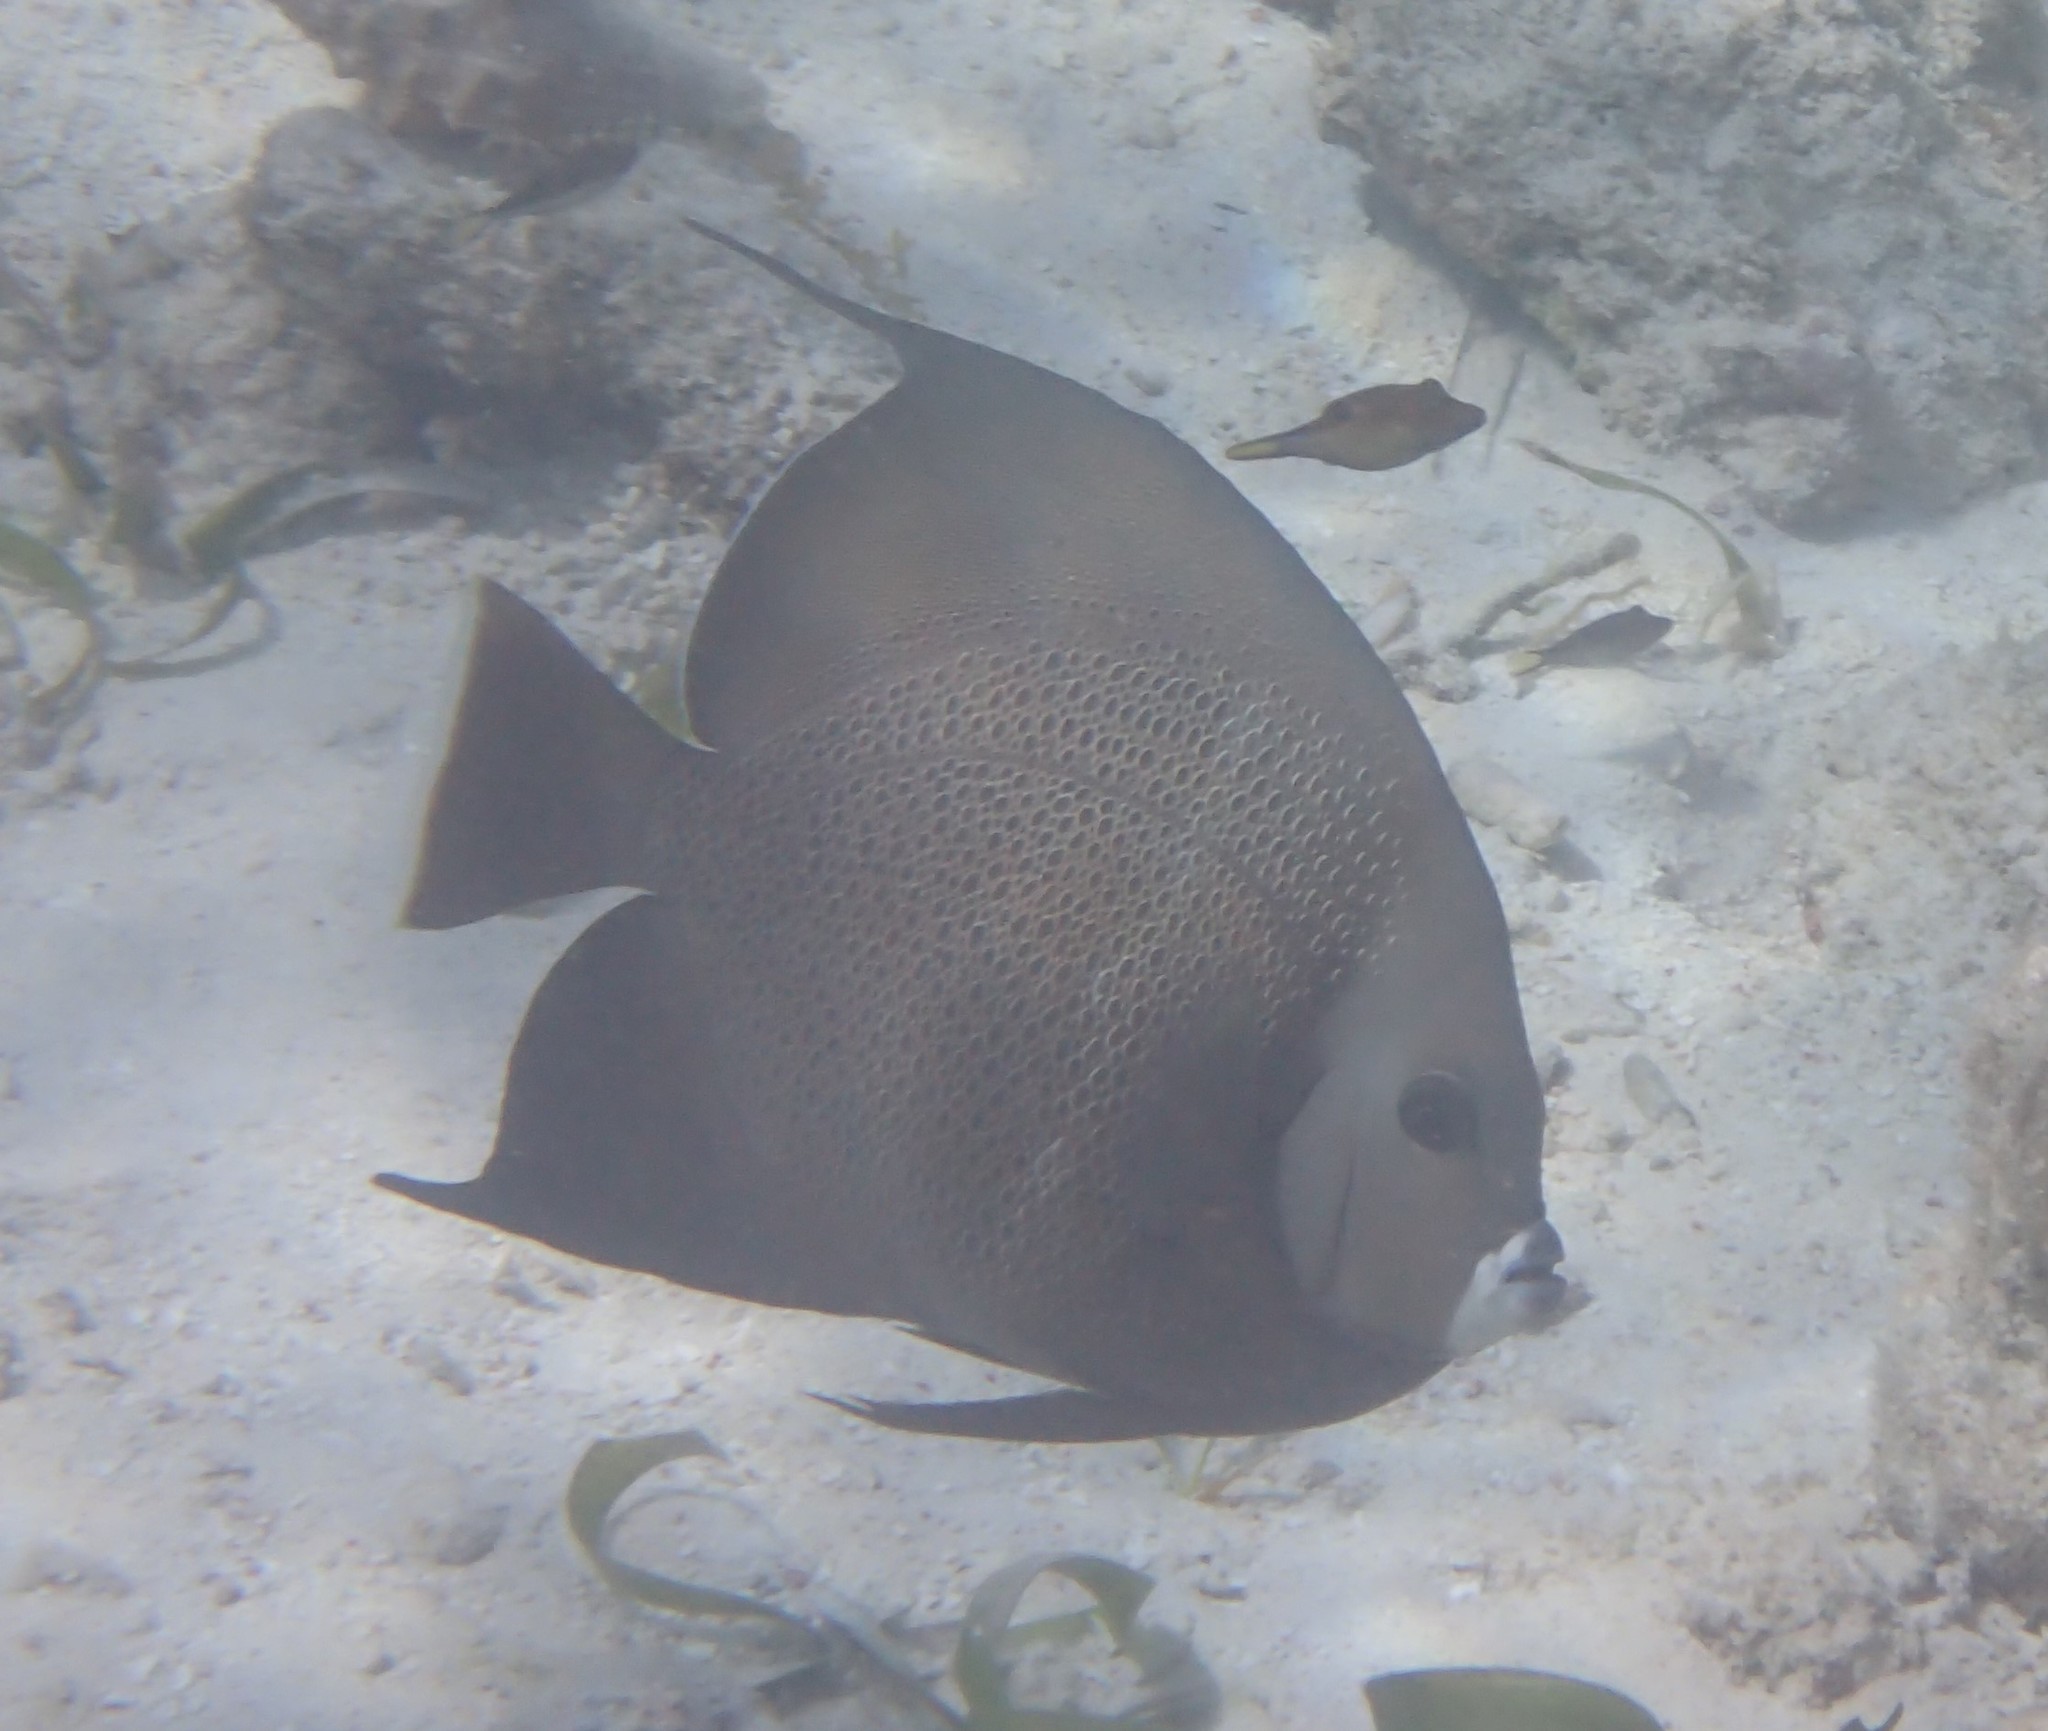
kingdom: Animalia
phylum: Chordata
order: Perciformes
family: Pomacanthidae
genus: Pomacanthus
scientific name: Pomacanthus arcuatus
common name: Gray angelfish
